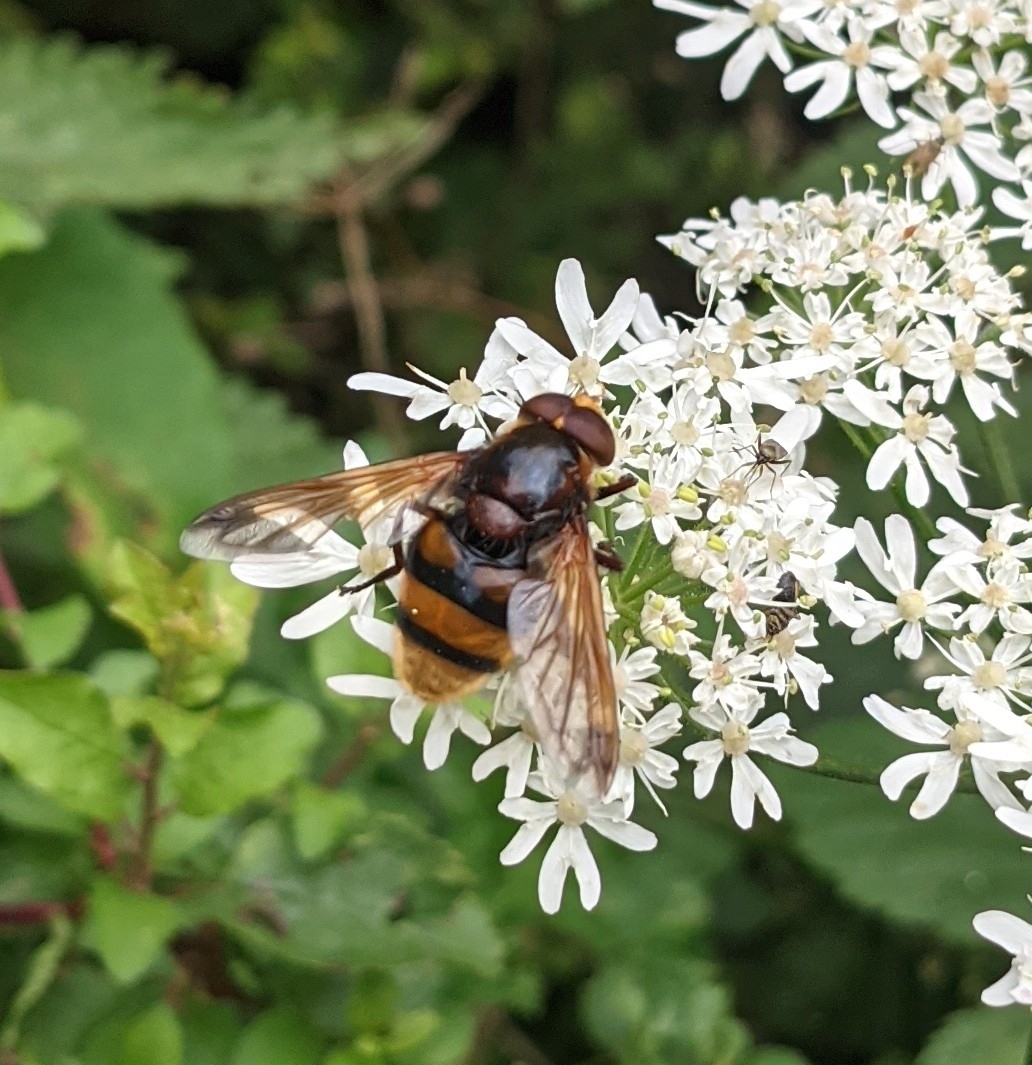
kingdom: Animalia
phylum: Arthropoda
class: Insecta
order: Diptera
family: Syrphidae
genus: Volucella
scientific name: Volucella zonaria
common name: Hornet hoverfly
